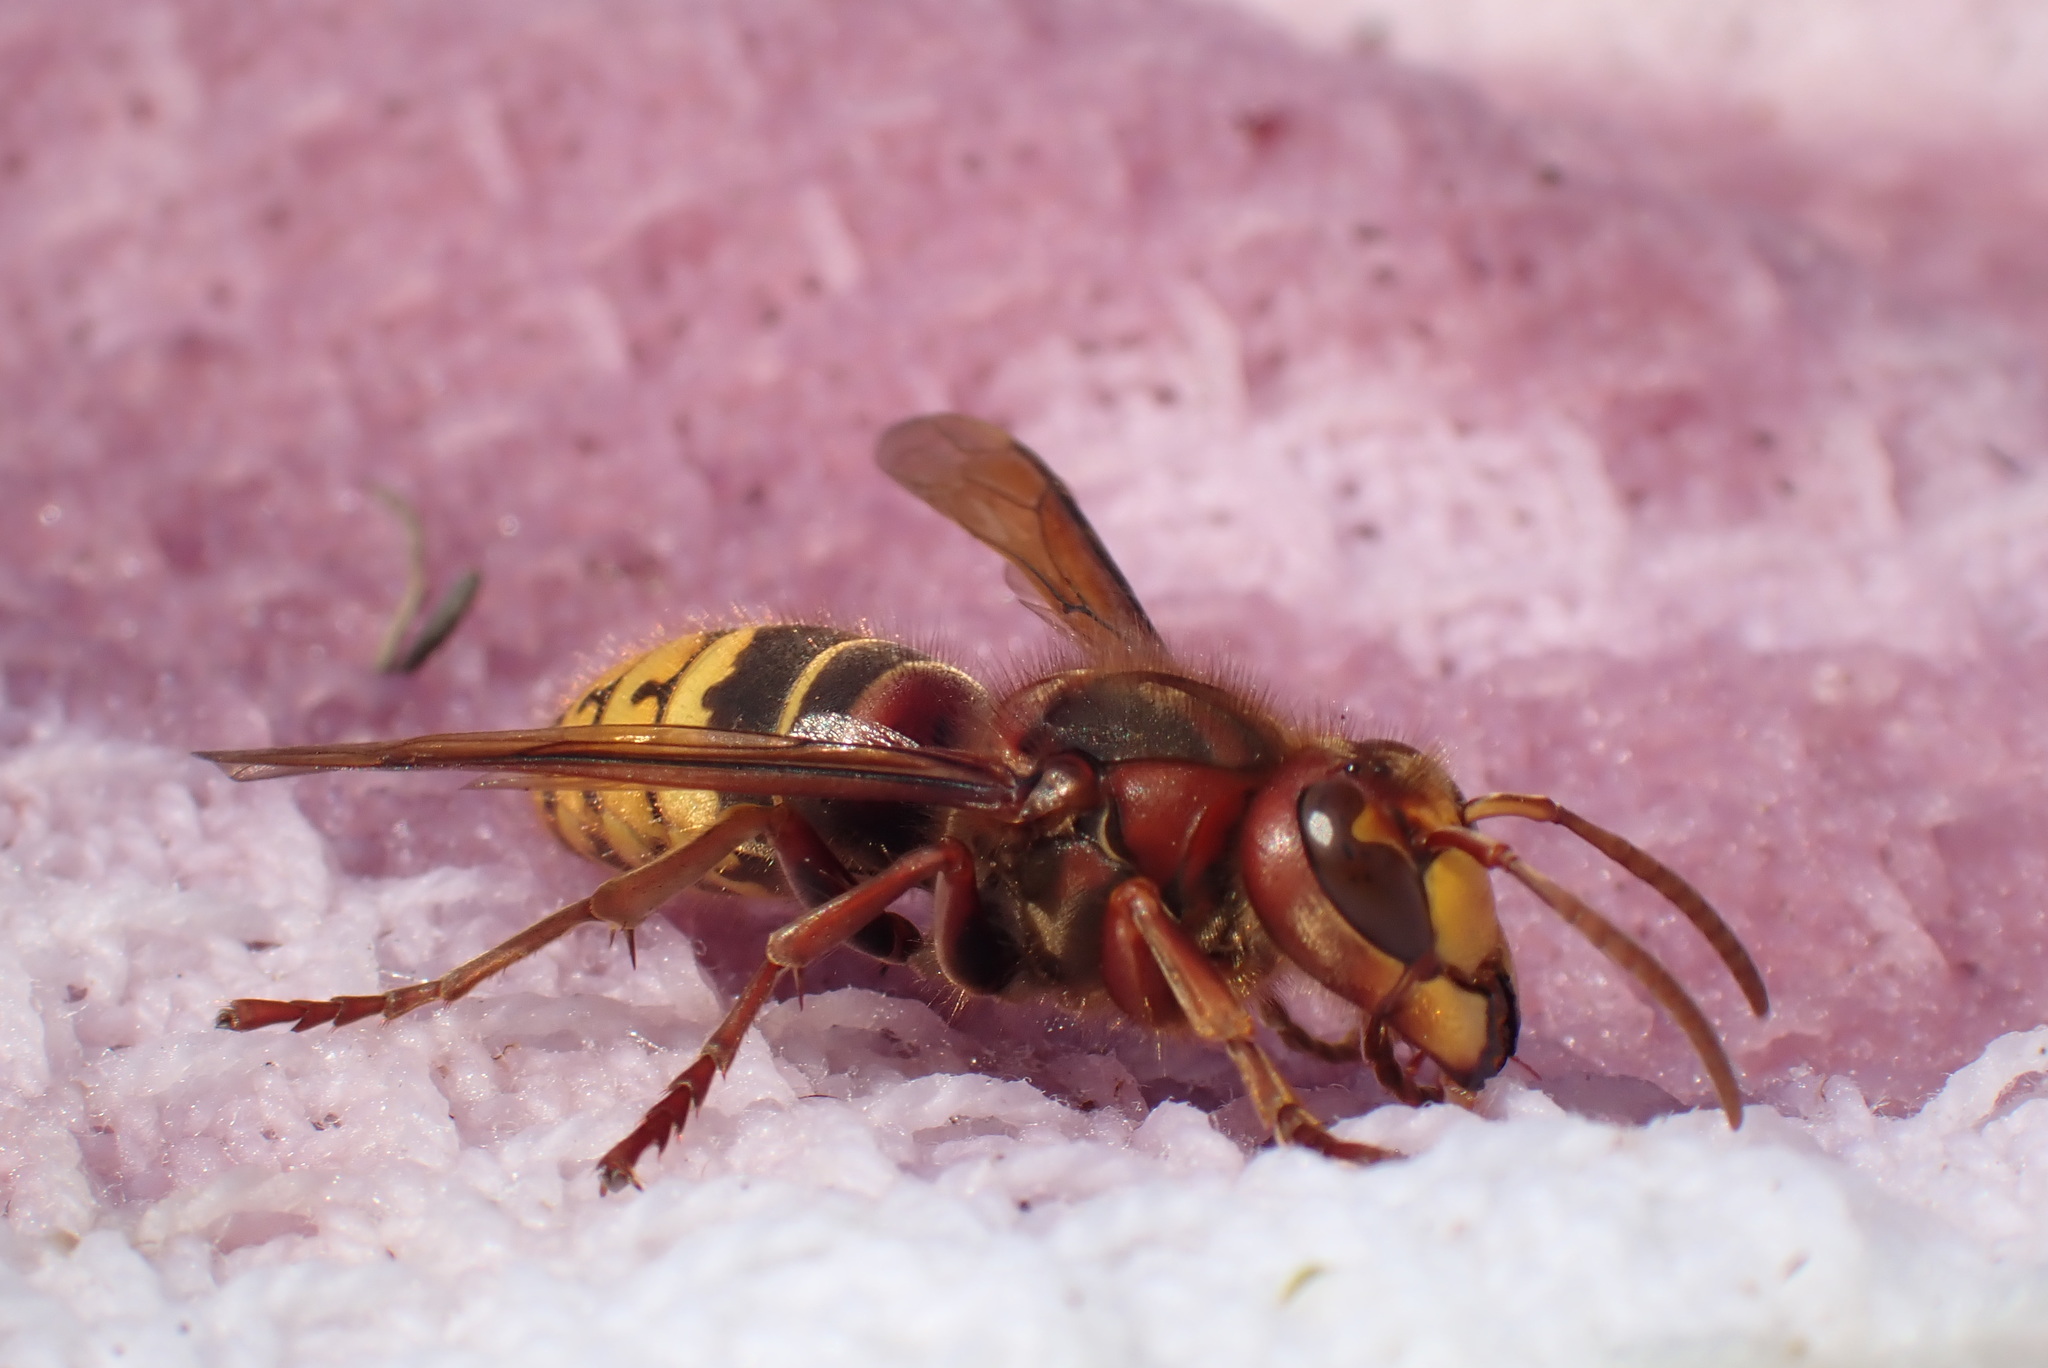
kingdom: Animalia
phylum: Arthropoda
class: Insecta
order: Hymenoptera
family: Vespidae
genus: Vespa
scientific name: Vespa crabro
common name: Hornet
